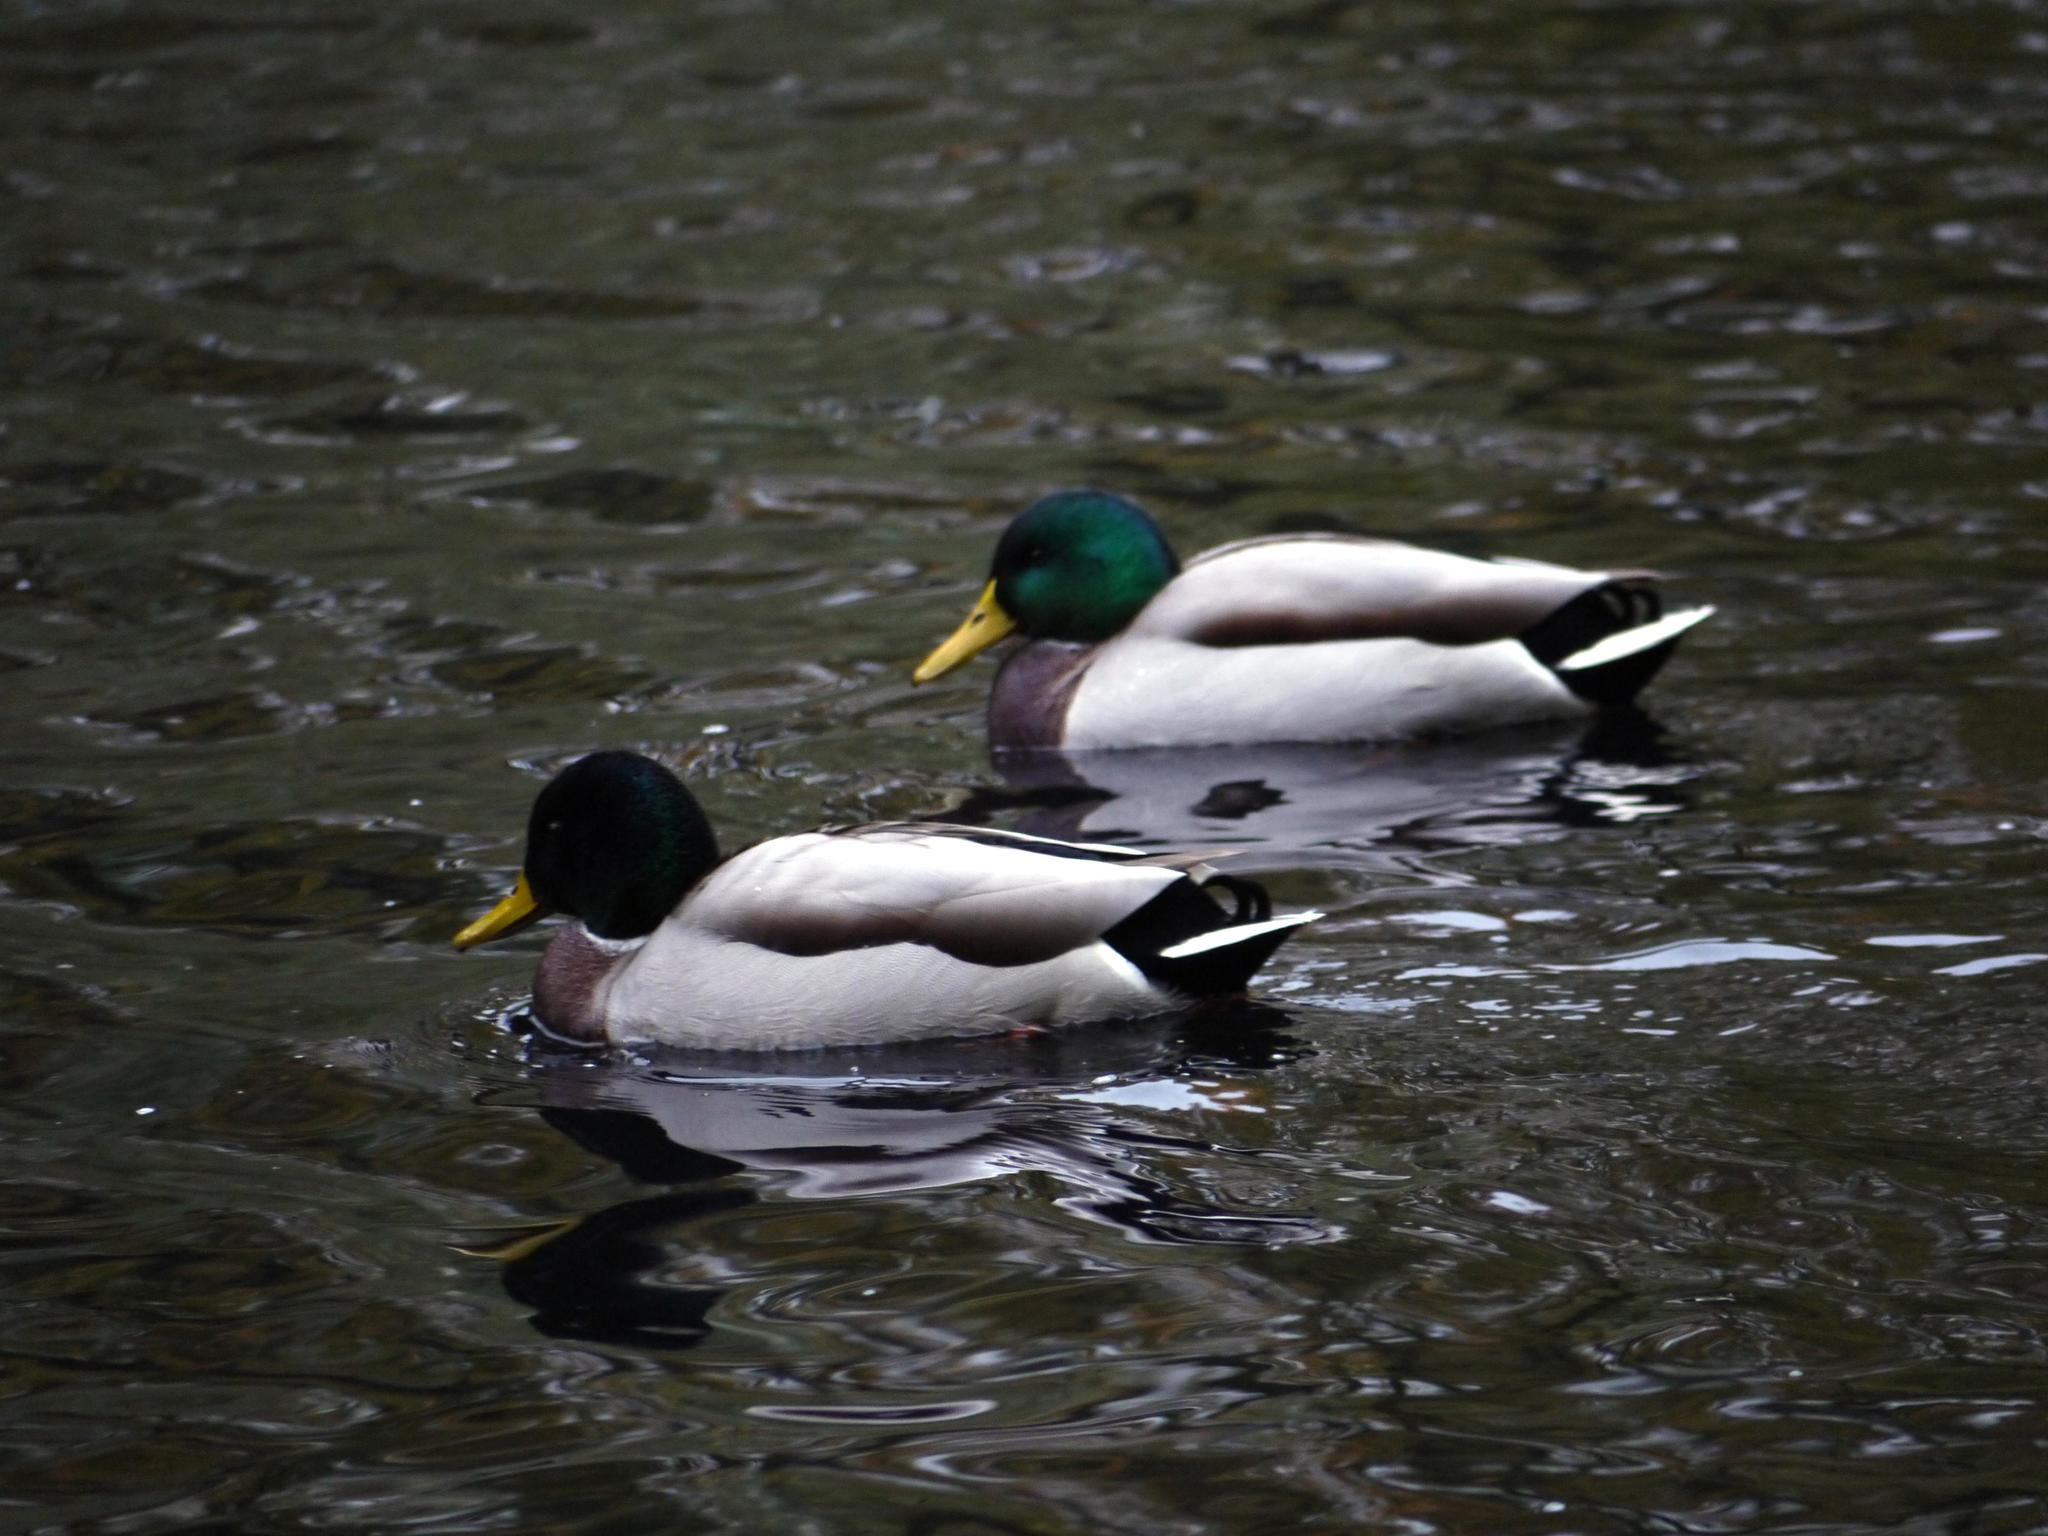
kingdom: Animalia
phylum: Chordata
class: Aves
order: Anseriformes
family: Anatidae
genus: Anas
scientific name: Anas platyrhynchos
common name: Mallard
